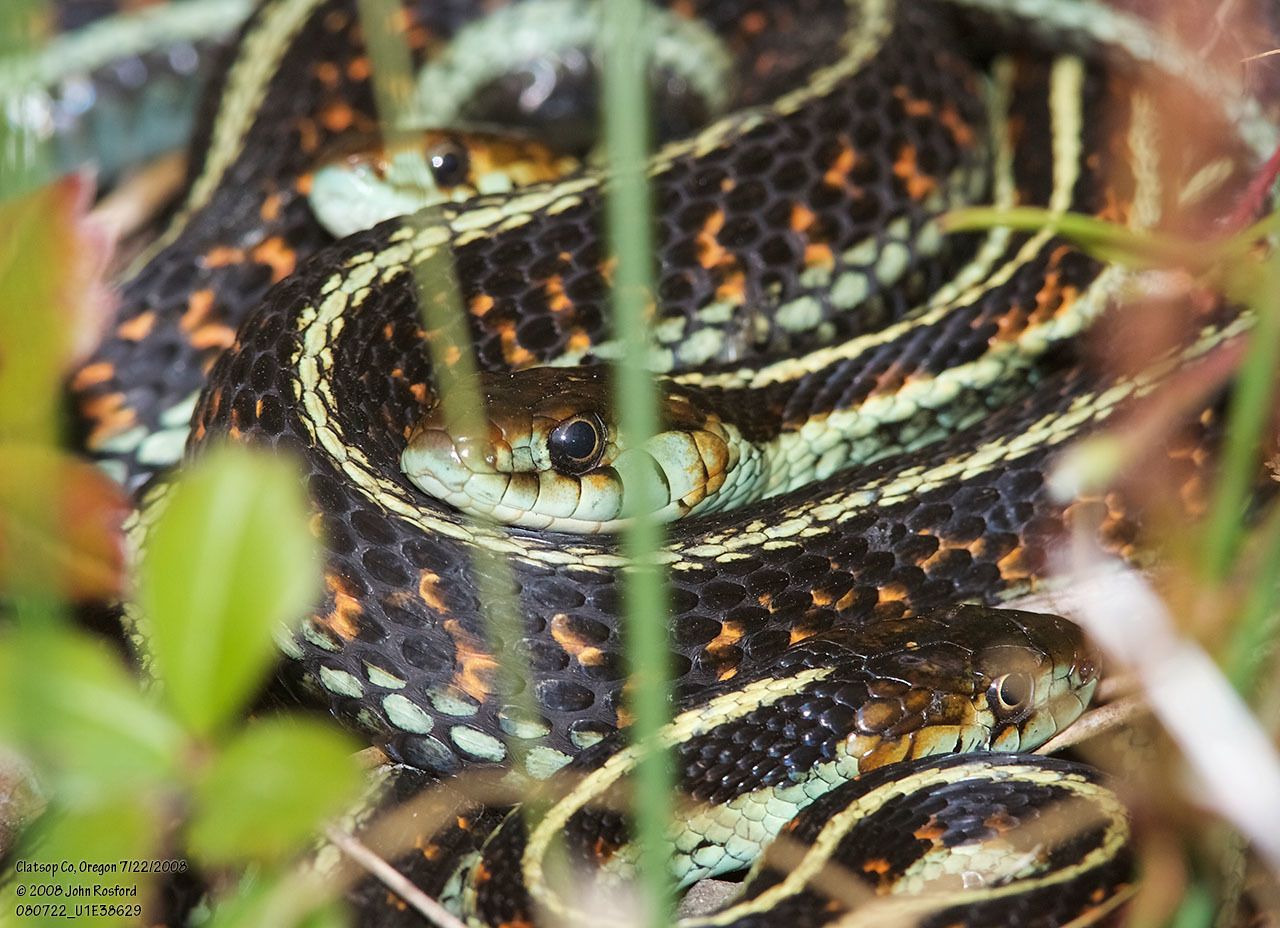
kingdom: Animalia
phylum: Chordata
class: Squamata
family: Colubridae
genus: Thamnophis
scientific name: Thamnophis sirtalis
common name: Common garter snake
